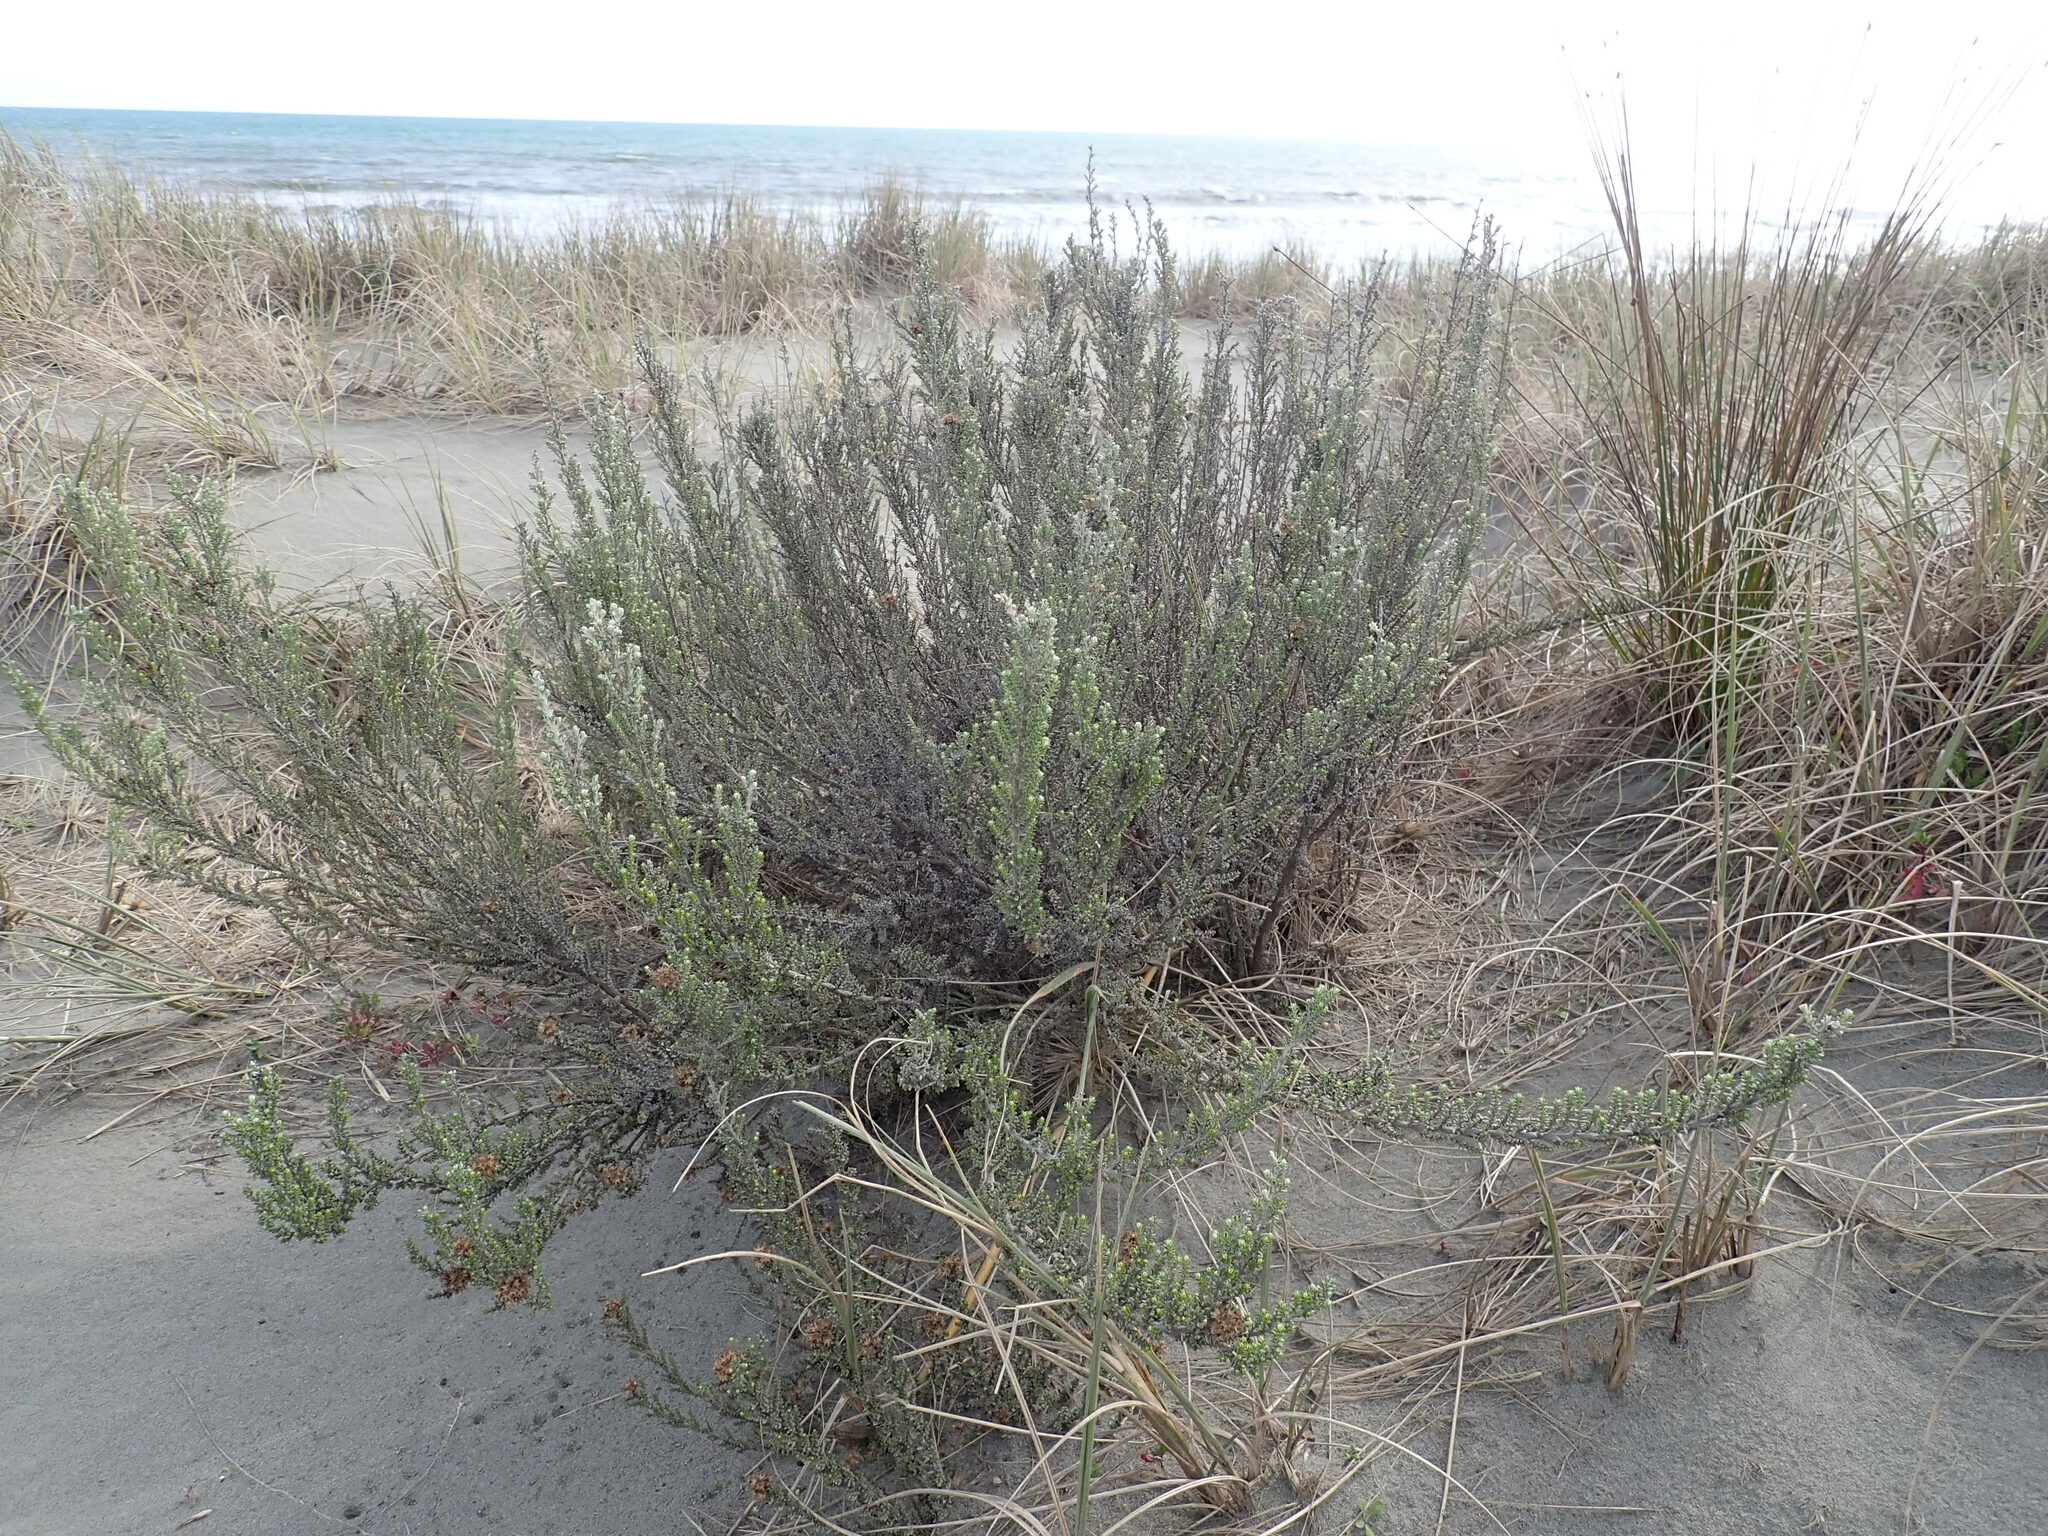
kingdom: Plantae
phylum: Tracheophyta
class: Magnoliopsida
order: Asterales
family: Asteraceae
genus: Ozothamnus
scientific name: Ozothamnus leptophyllus
